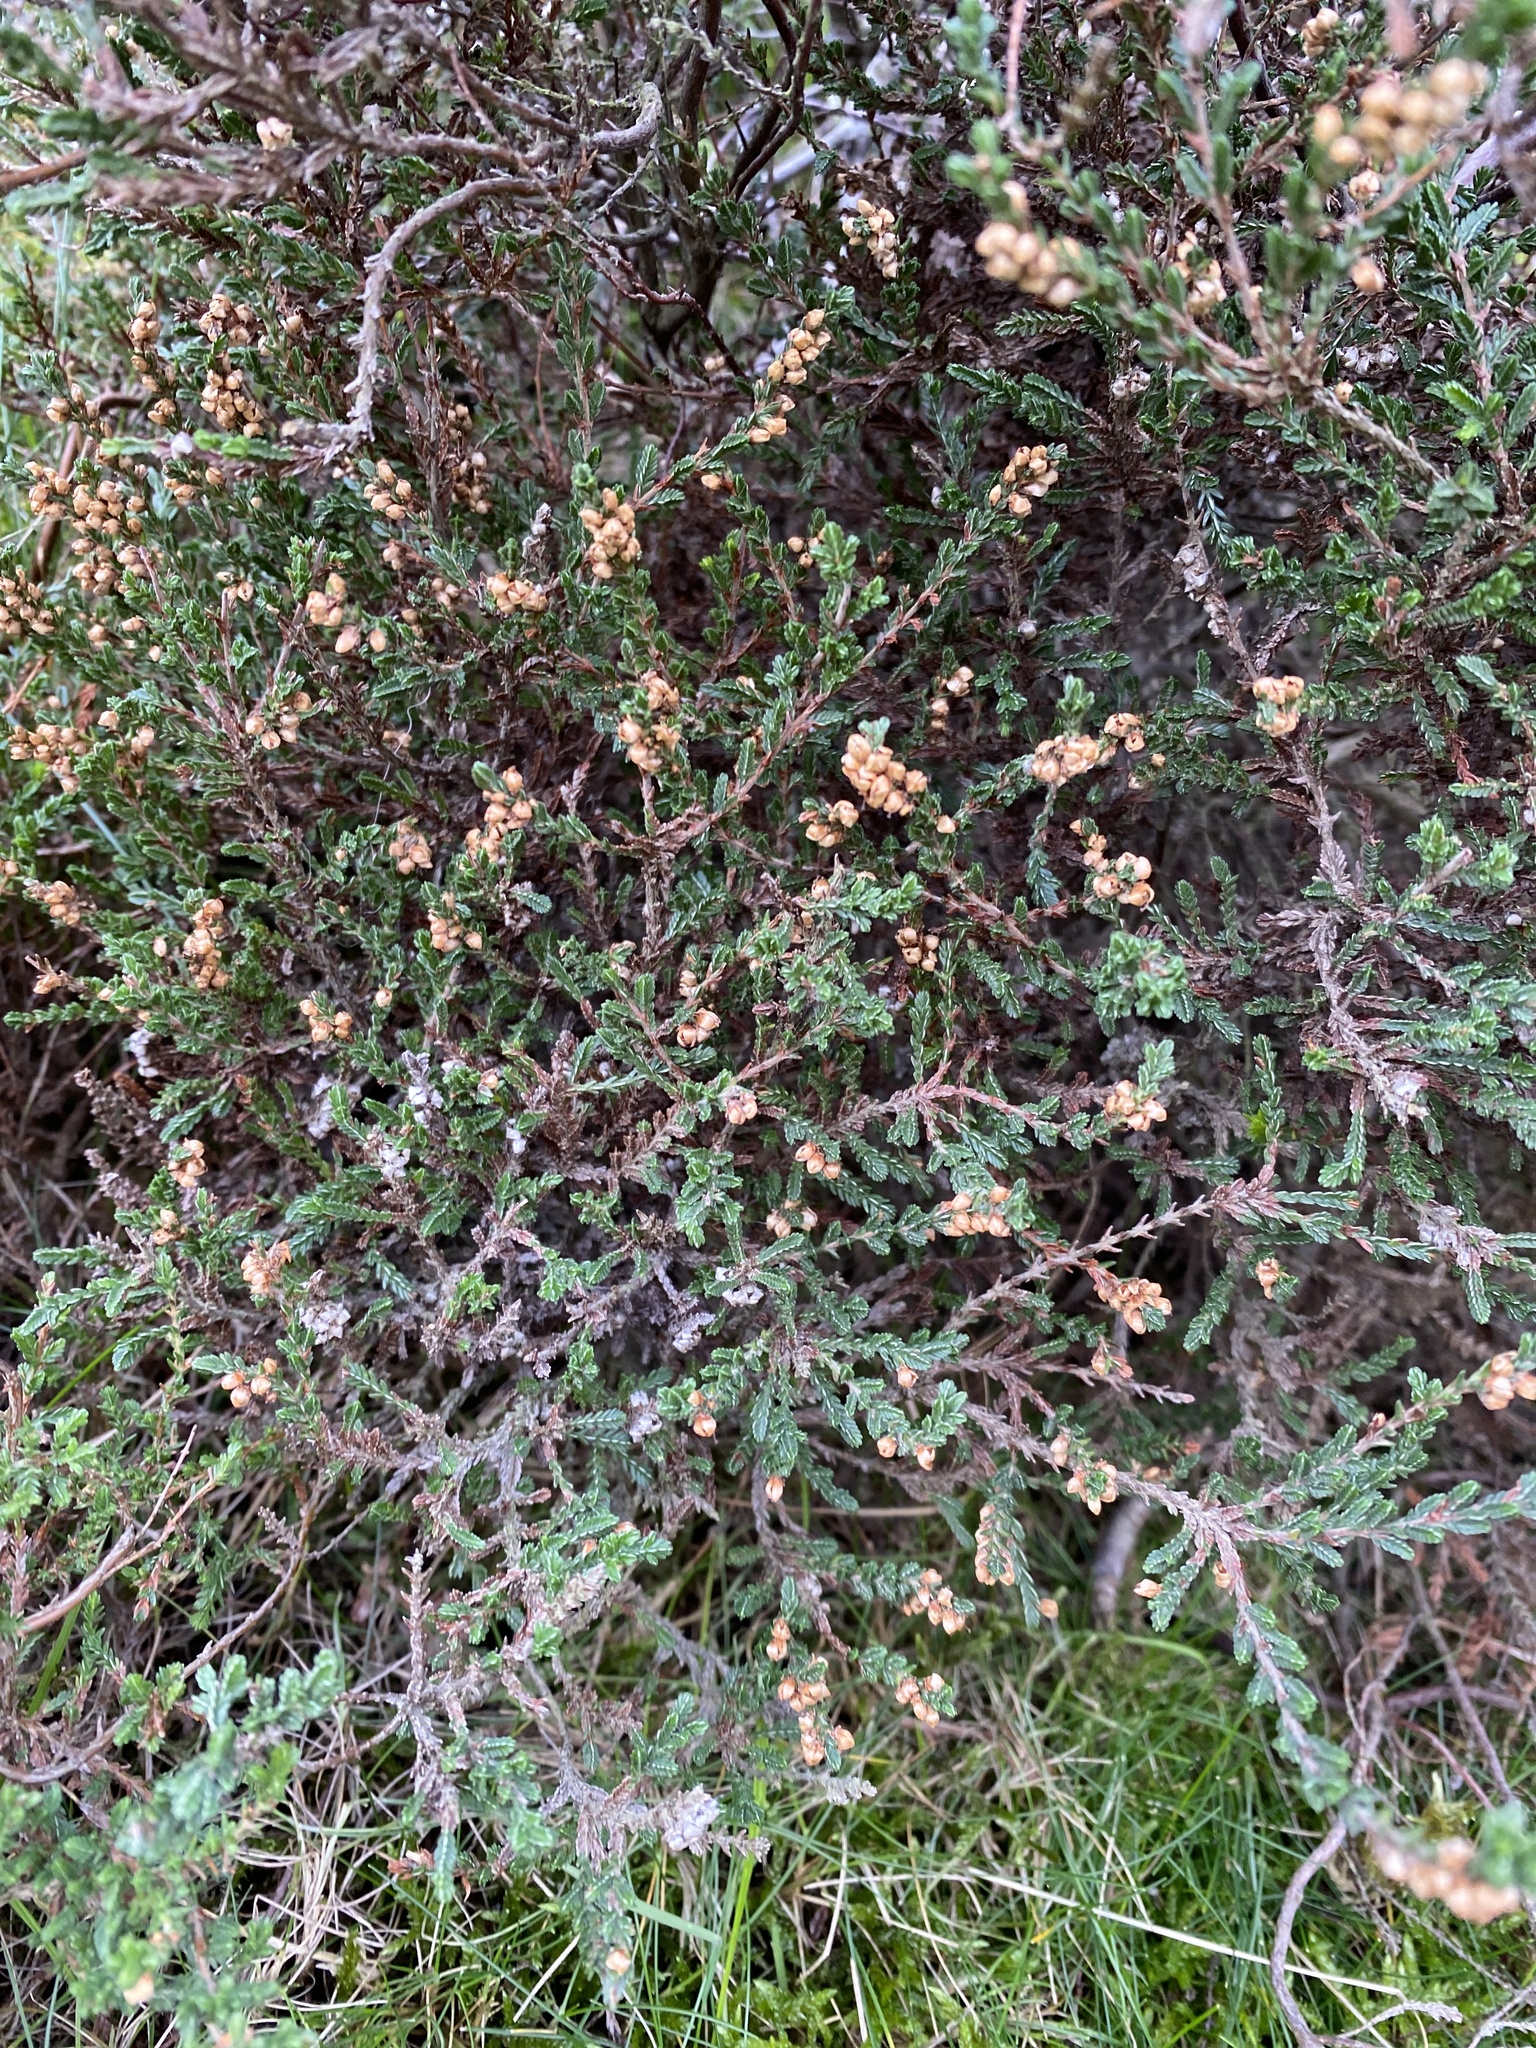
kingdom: Plantae
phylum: Tracheophyta
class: Magnoliopsida
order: Ericales
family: Ericaceae
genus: Calluna
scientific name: Calluna vulgaris
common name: Heather
